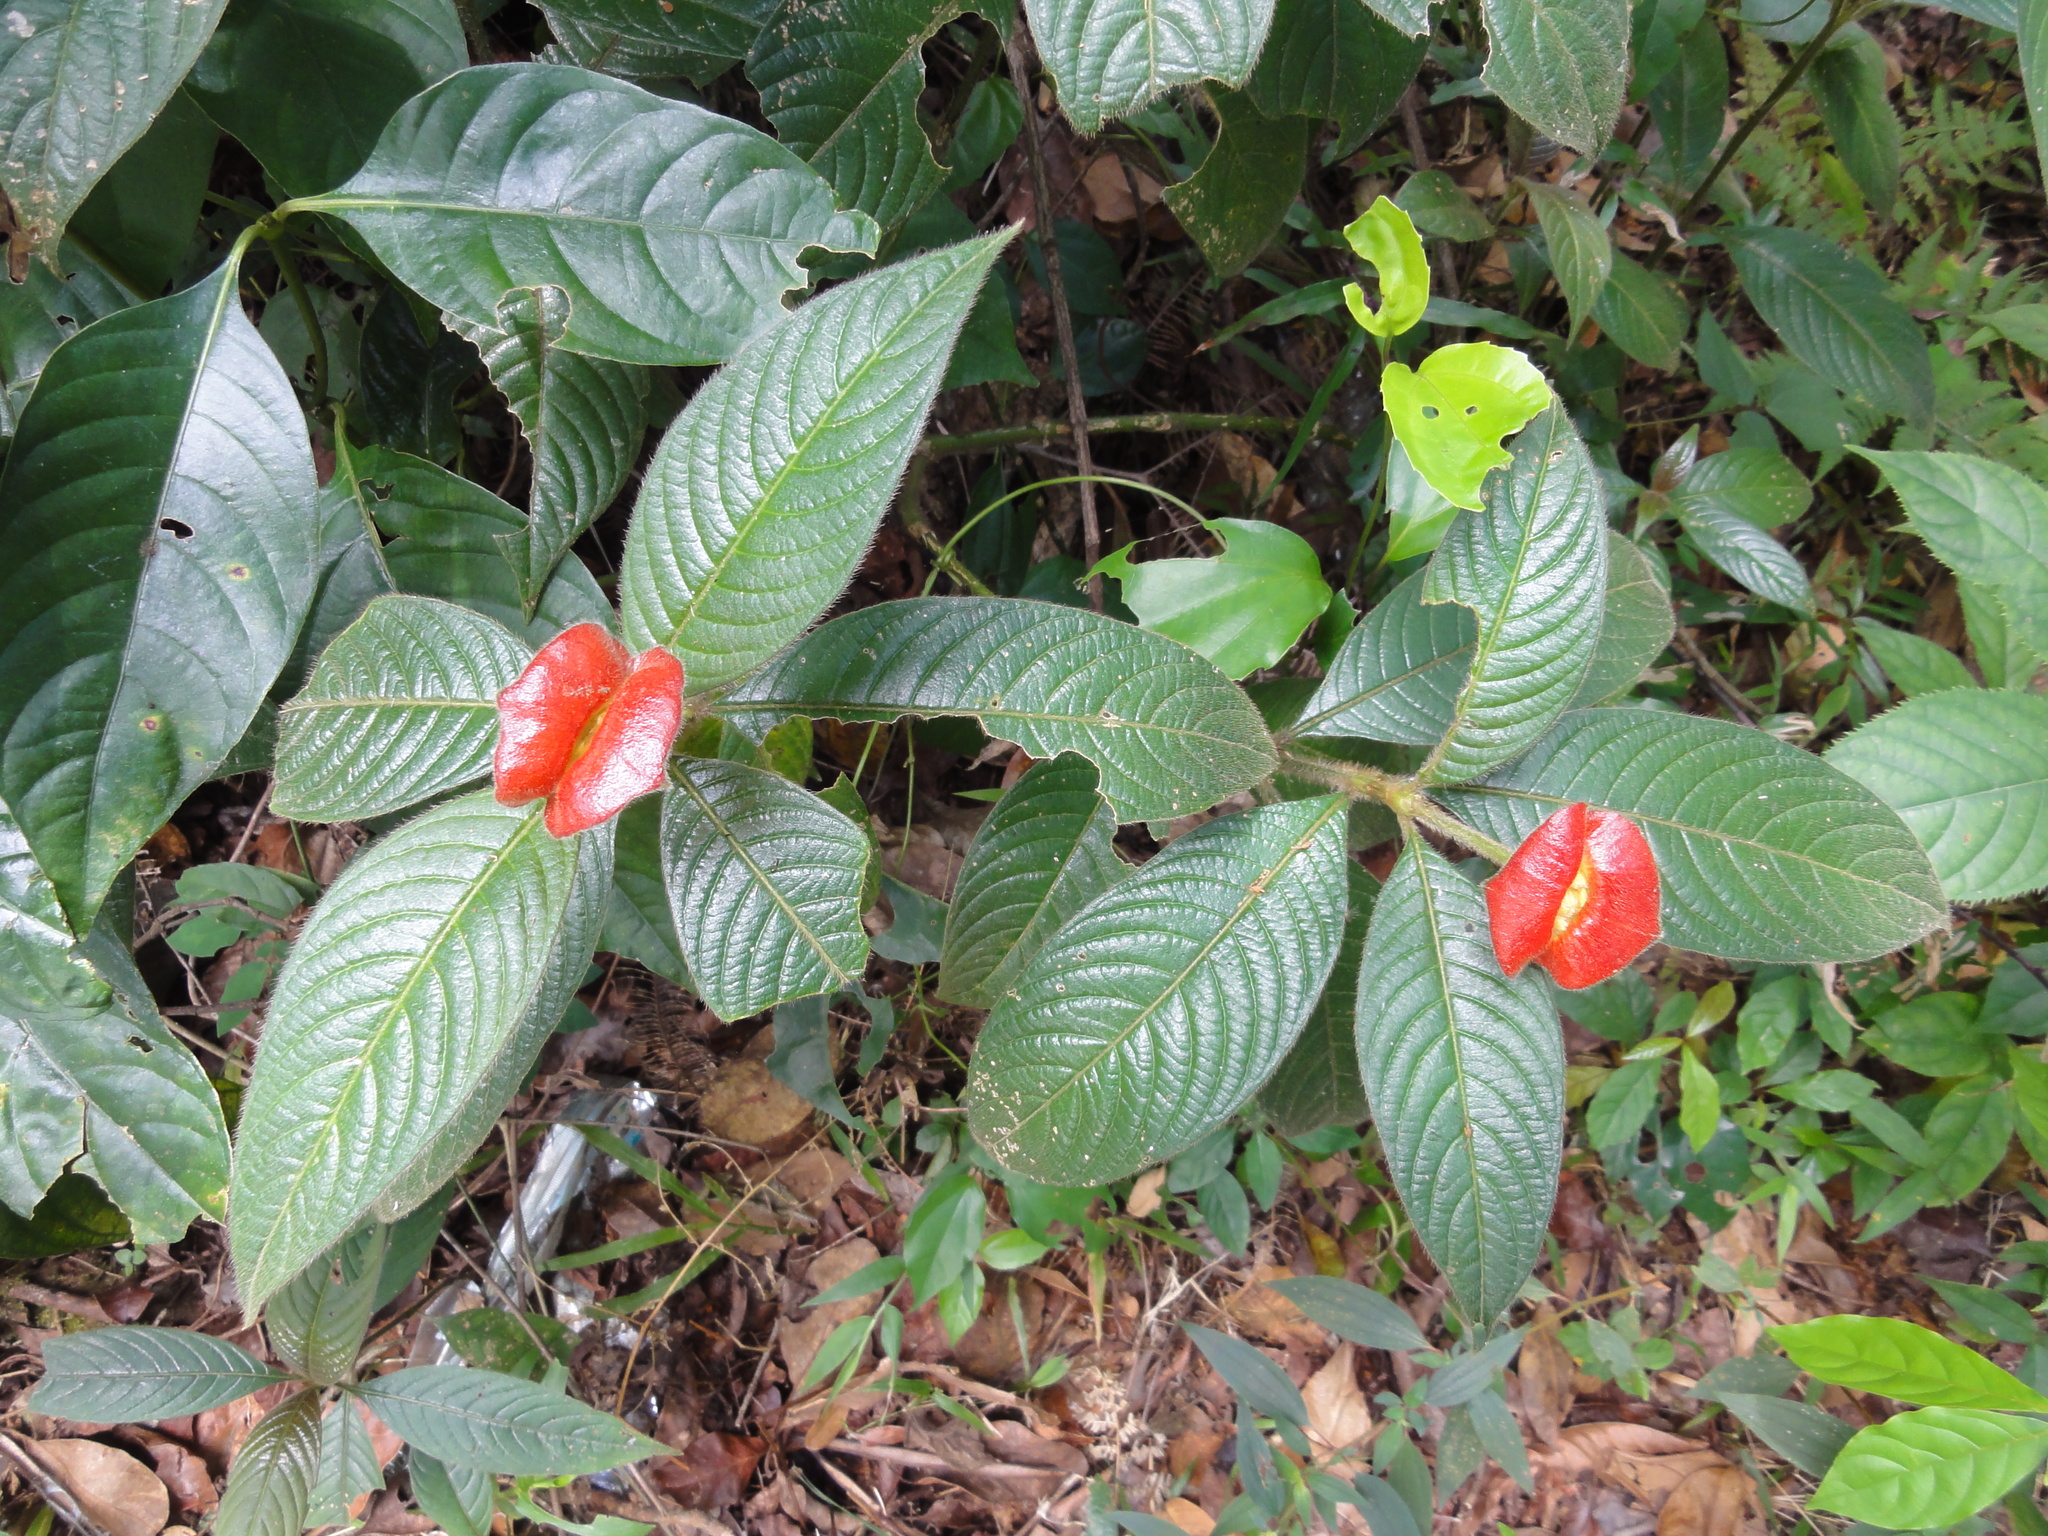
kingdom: Plantae
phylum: Tracheophyta
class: Magnoliopsida
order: Gentianales
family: Rubiaceae
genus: Palicourea
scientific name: Palicourea tomentosa
